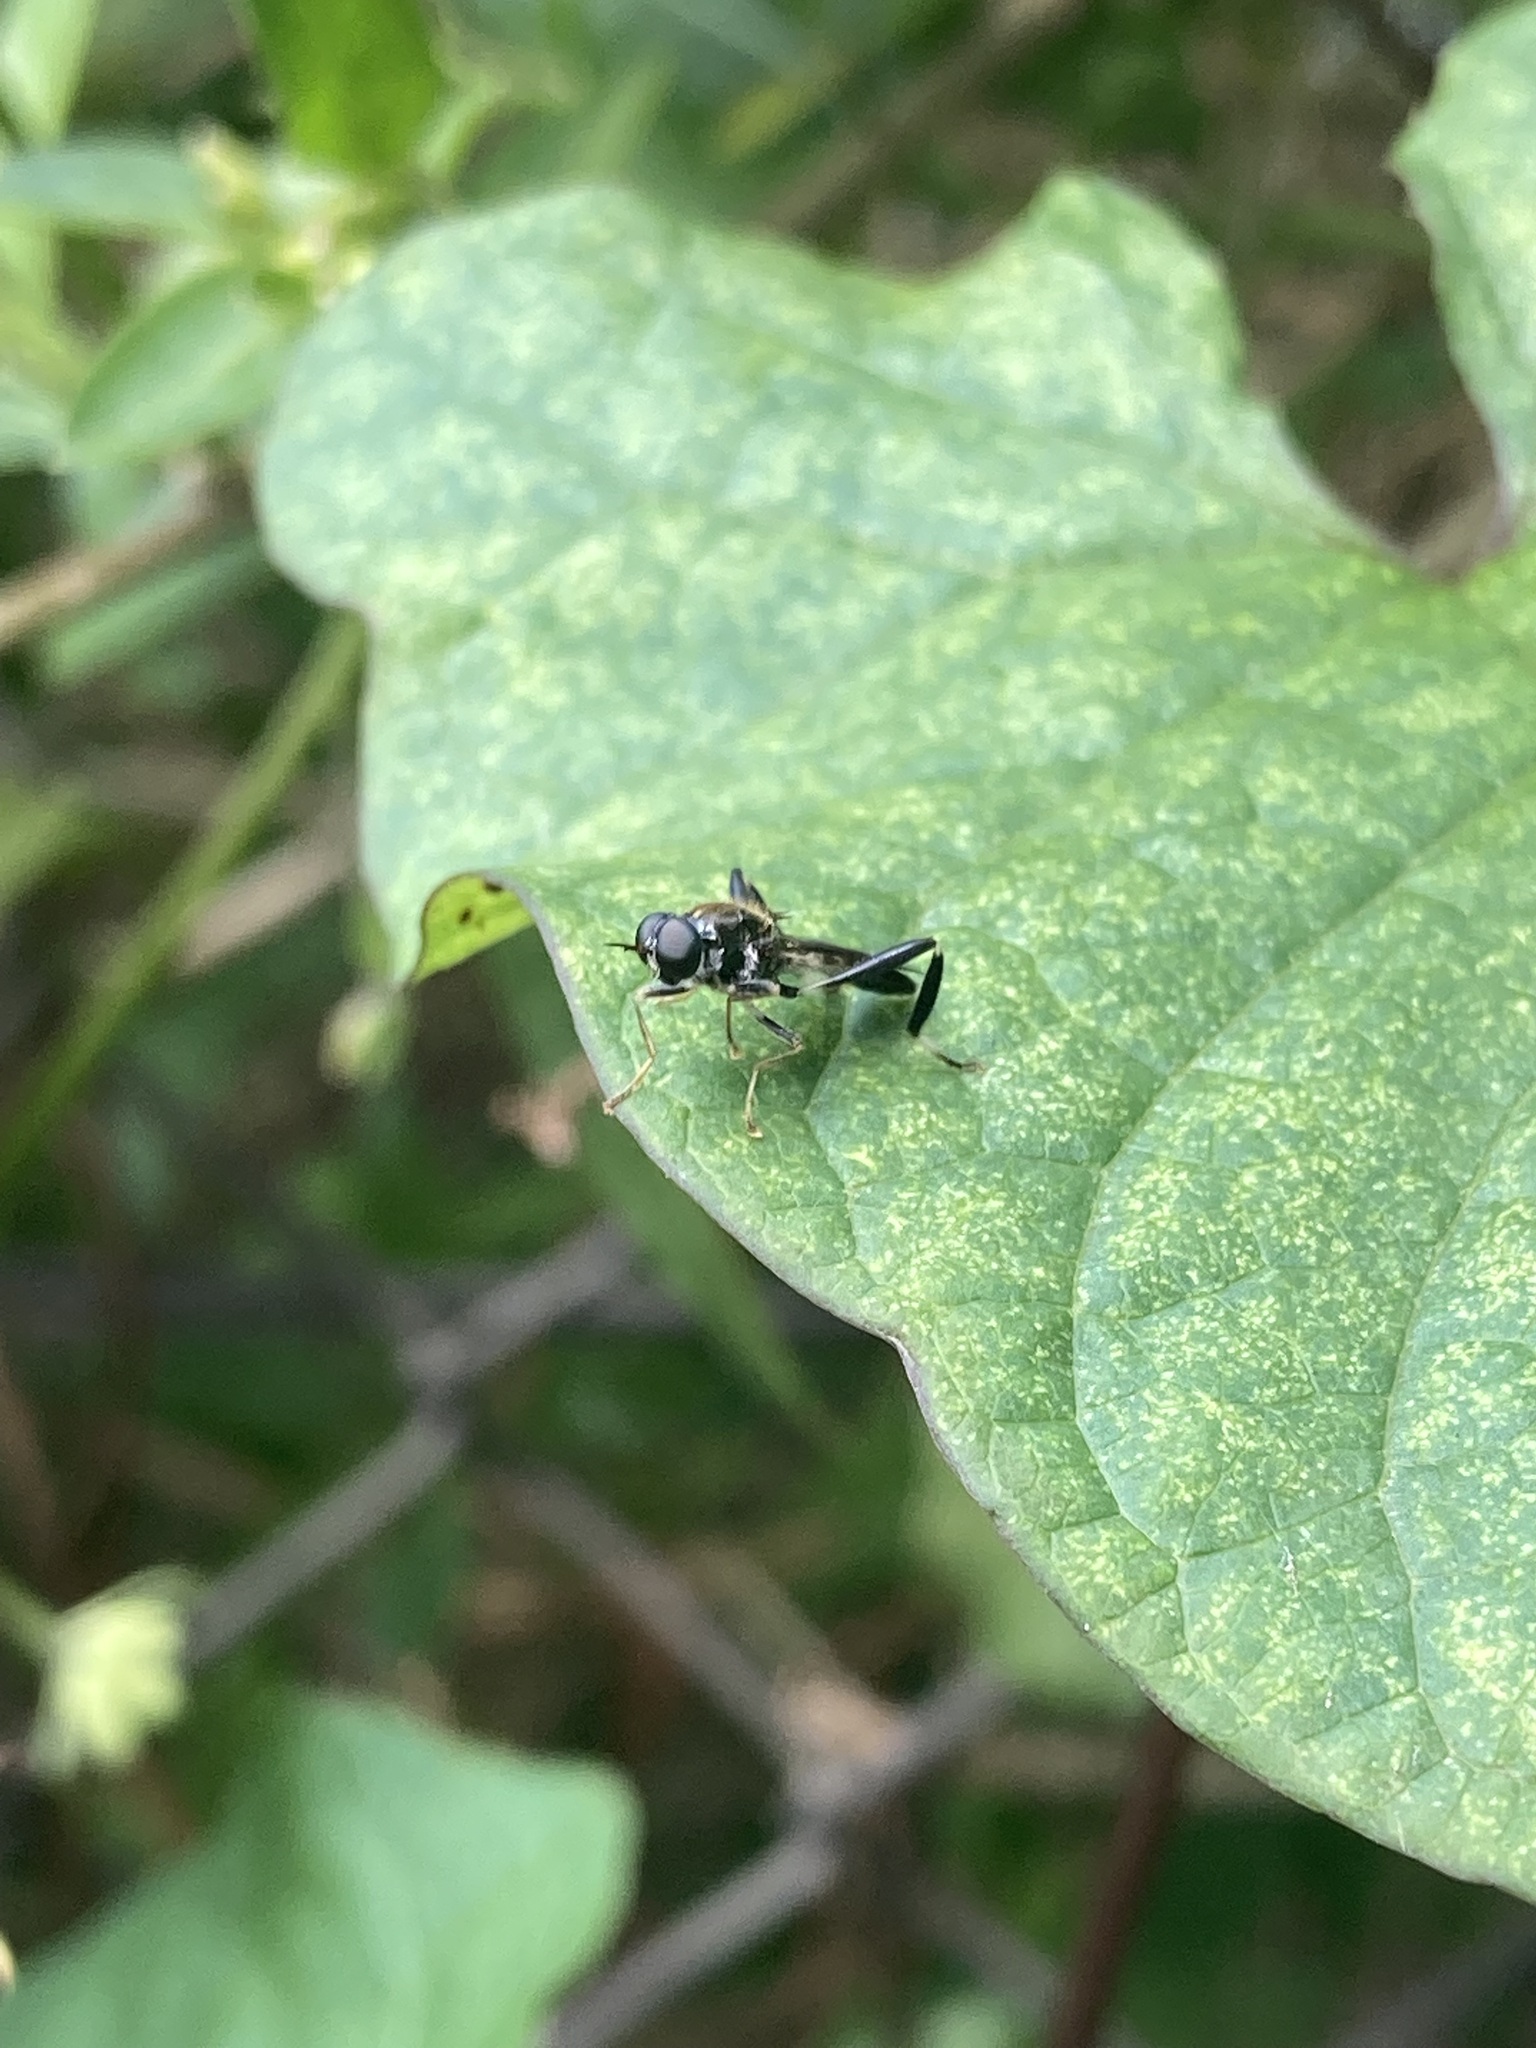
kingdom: Animalia
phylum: Arthropoda
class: Insecta
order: Diptera
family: Stratiomyidae
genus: Exaireta
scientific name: Exaireta spinigera
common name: Blue soldier fly
